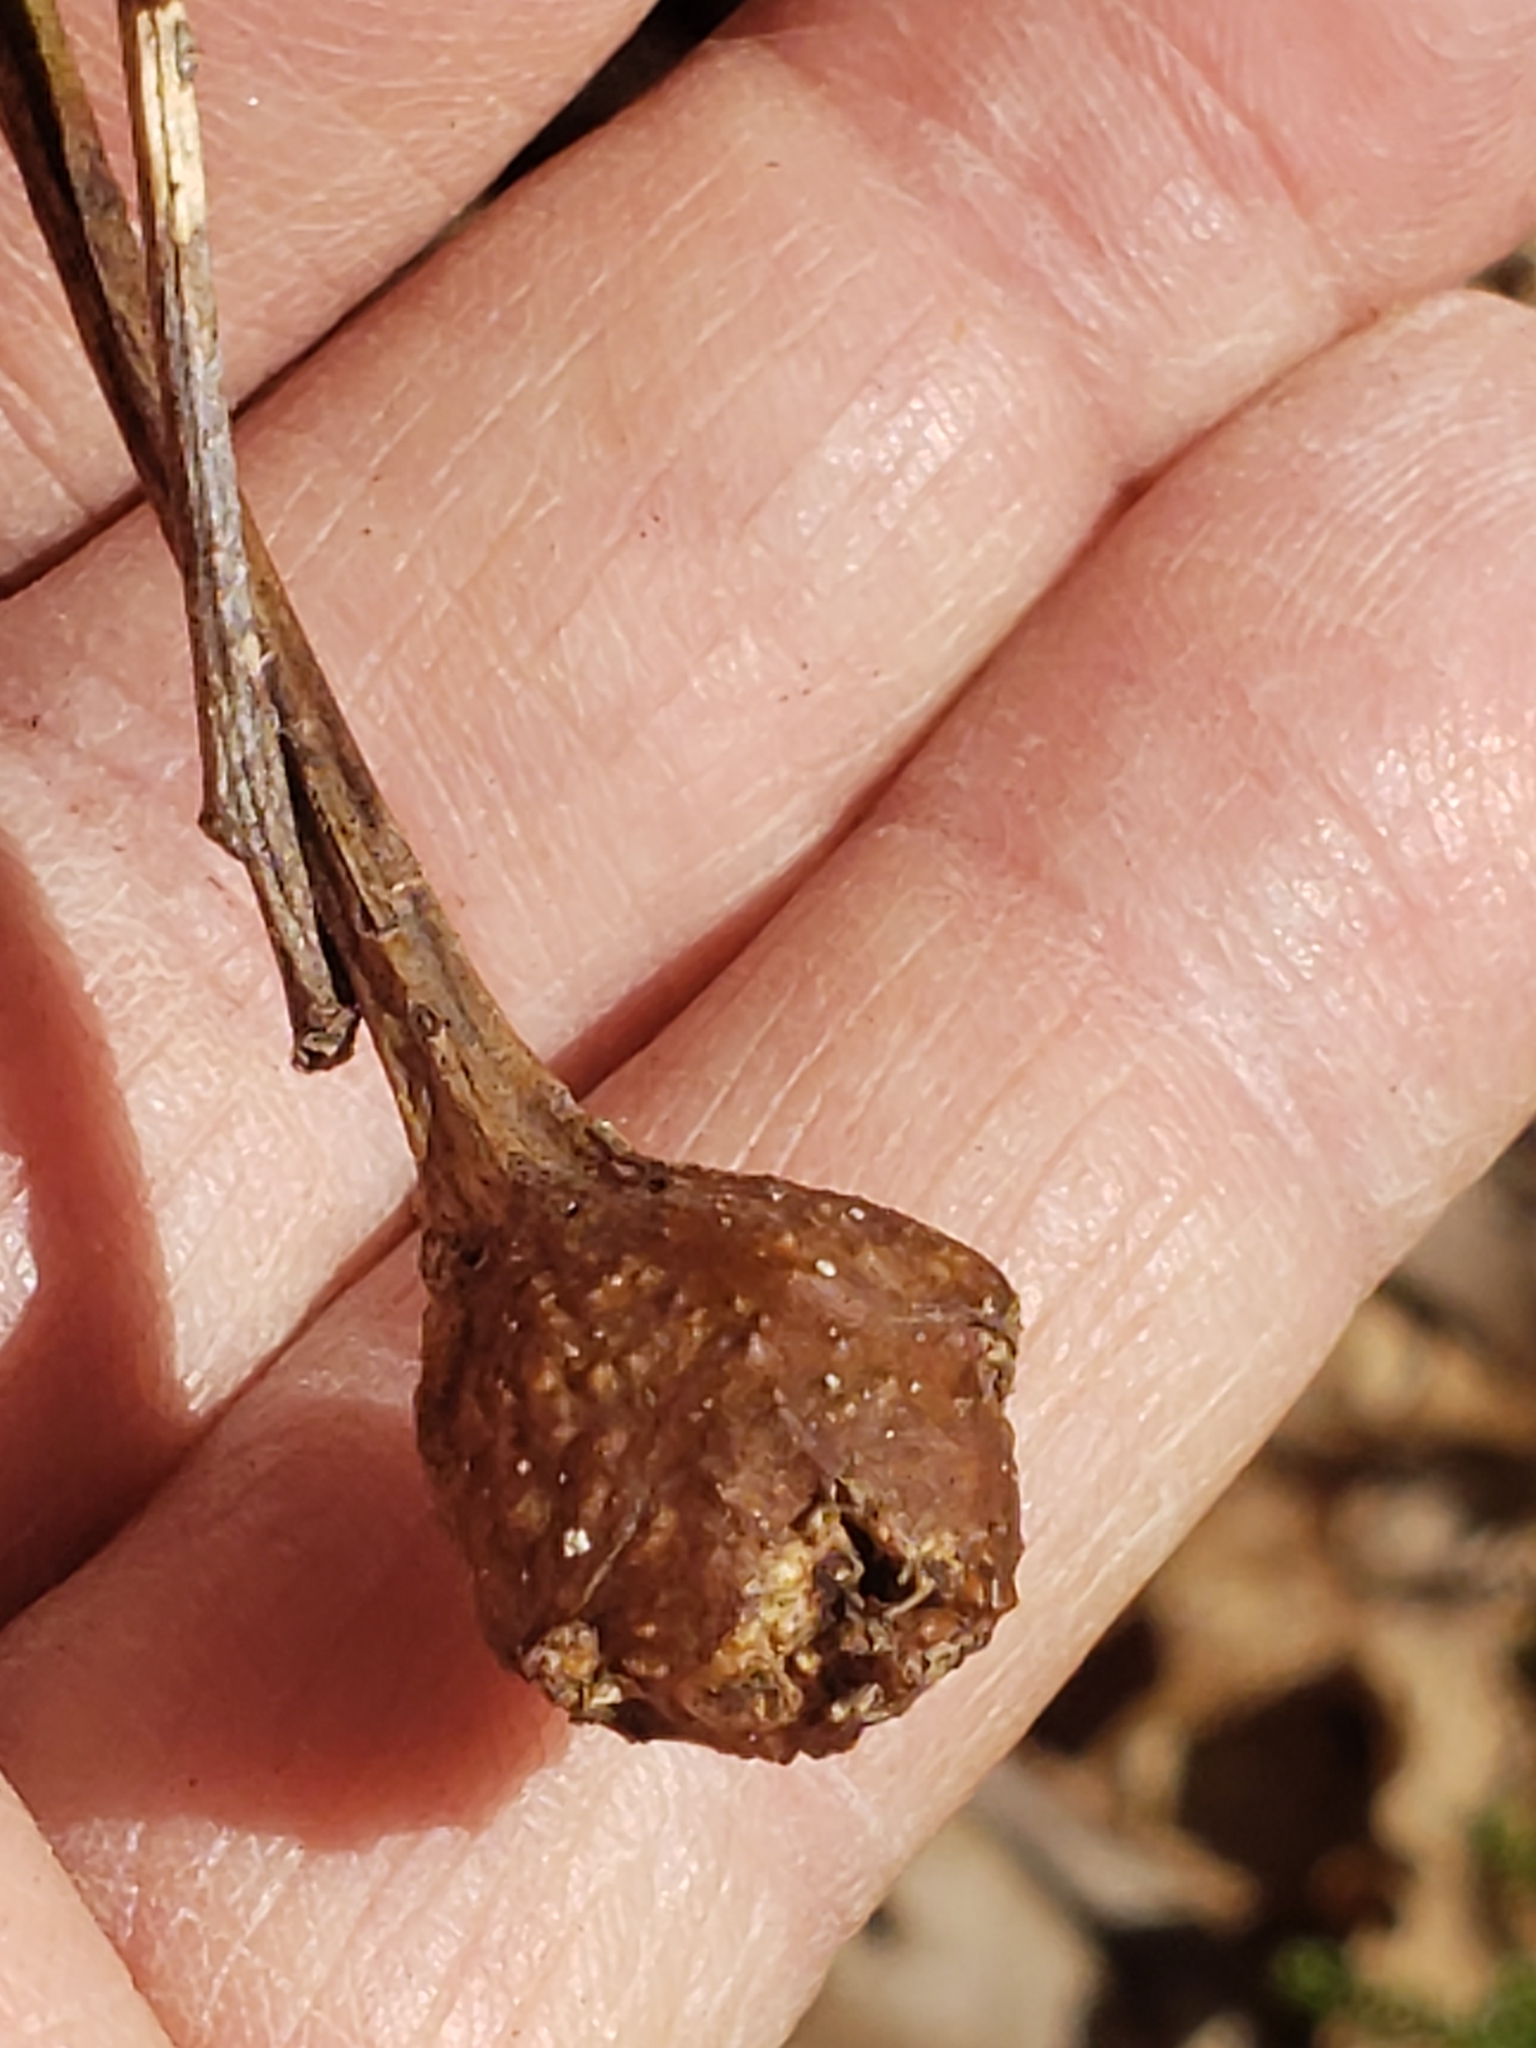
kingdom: Animalia
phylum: Arthropoda
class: Insecta
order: Hymenoptera
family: Cynipidae
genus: Callirhytis
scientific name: Callirhytis clavula
